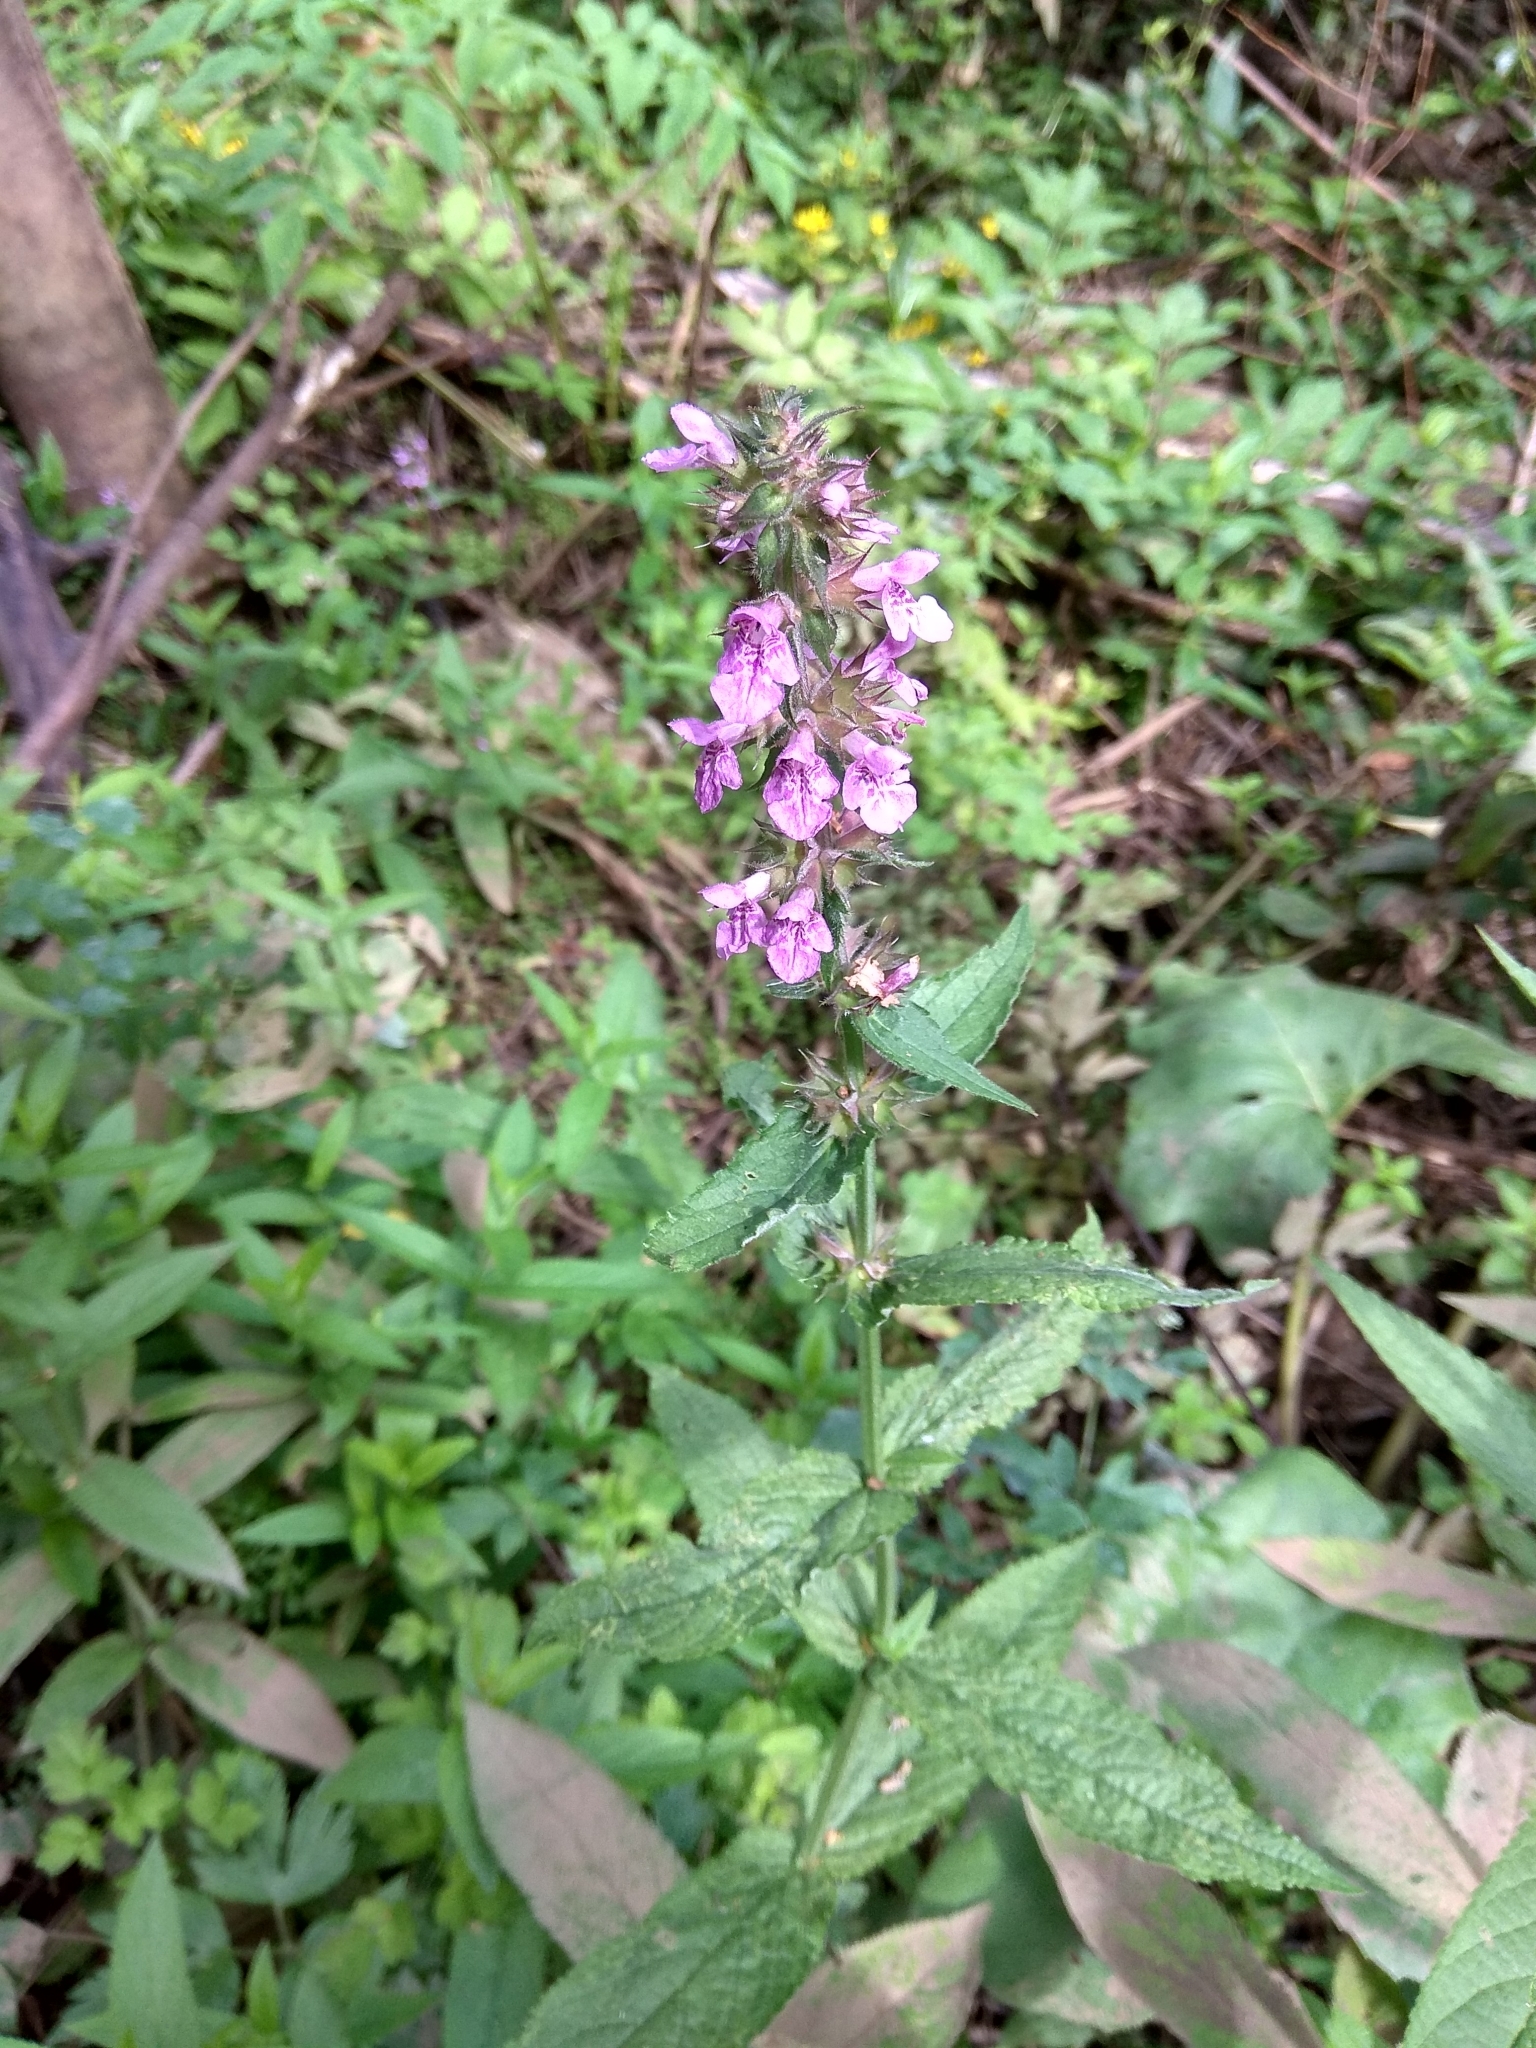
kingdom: Plantae
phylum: Tracheophyta
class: Magnoliopsida
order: Lamiales
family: Lamiaceae
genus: Stachys
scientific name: Stachys palustris
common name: Marsh woundwort
